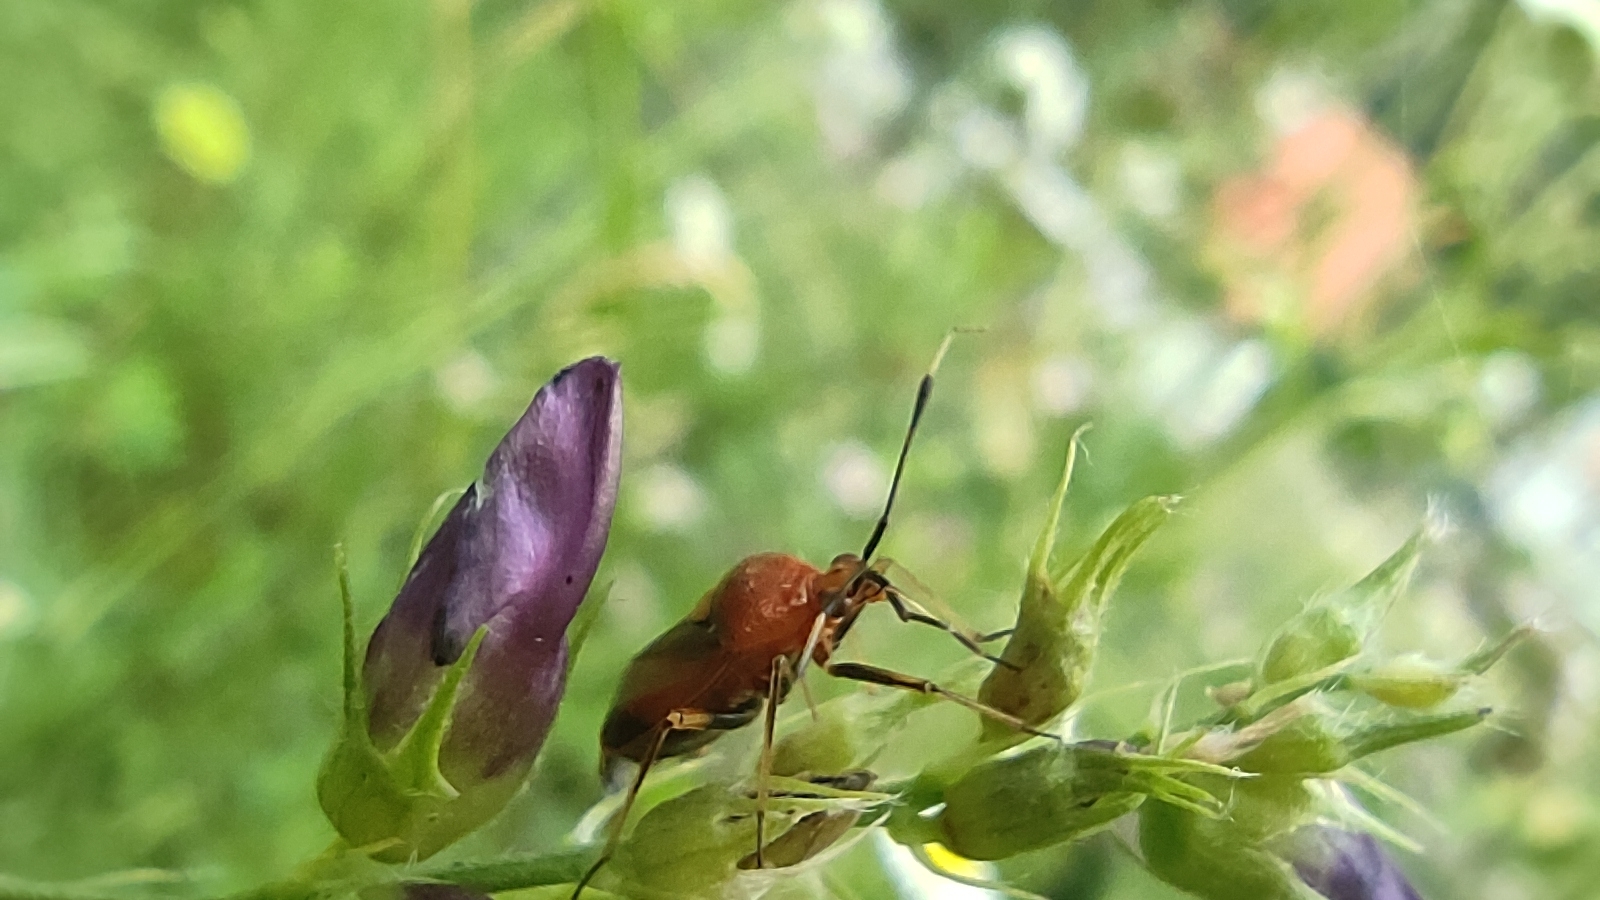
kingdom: Animalia
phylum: Arthropoda
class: Insecta
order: Hemiptera
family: Miridae
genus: Deraeocoris
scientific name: Deraeocoris ruber
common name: Plant bug
